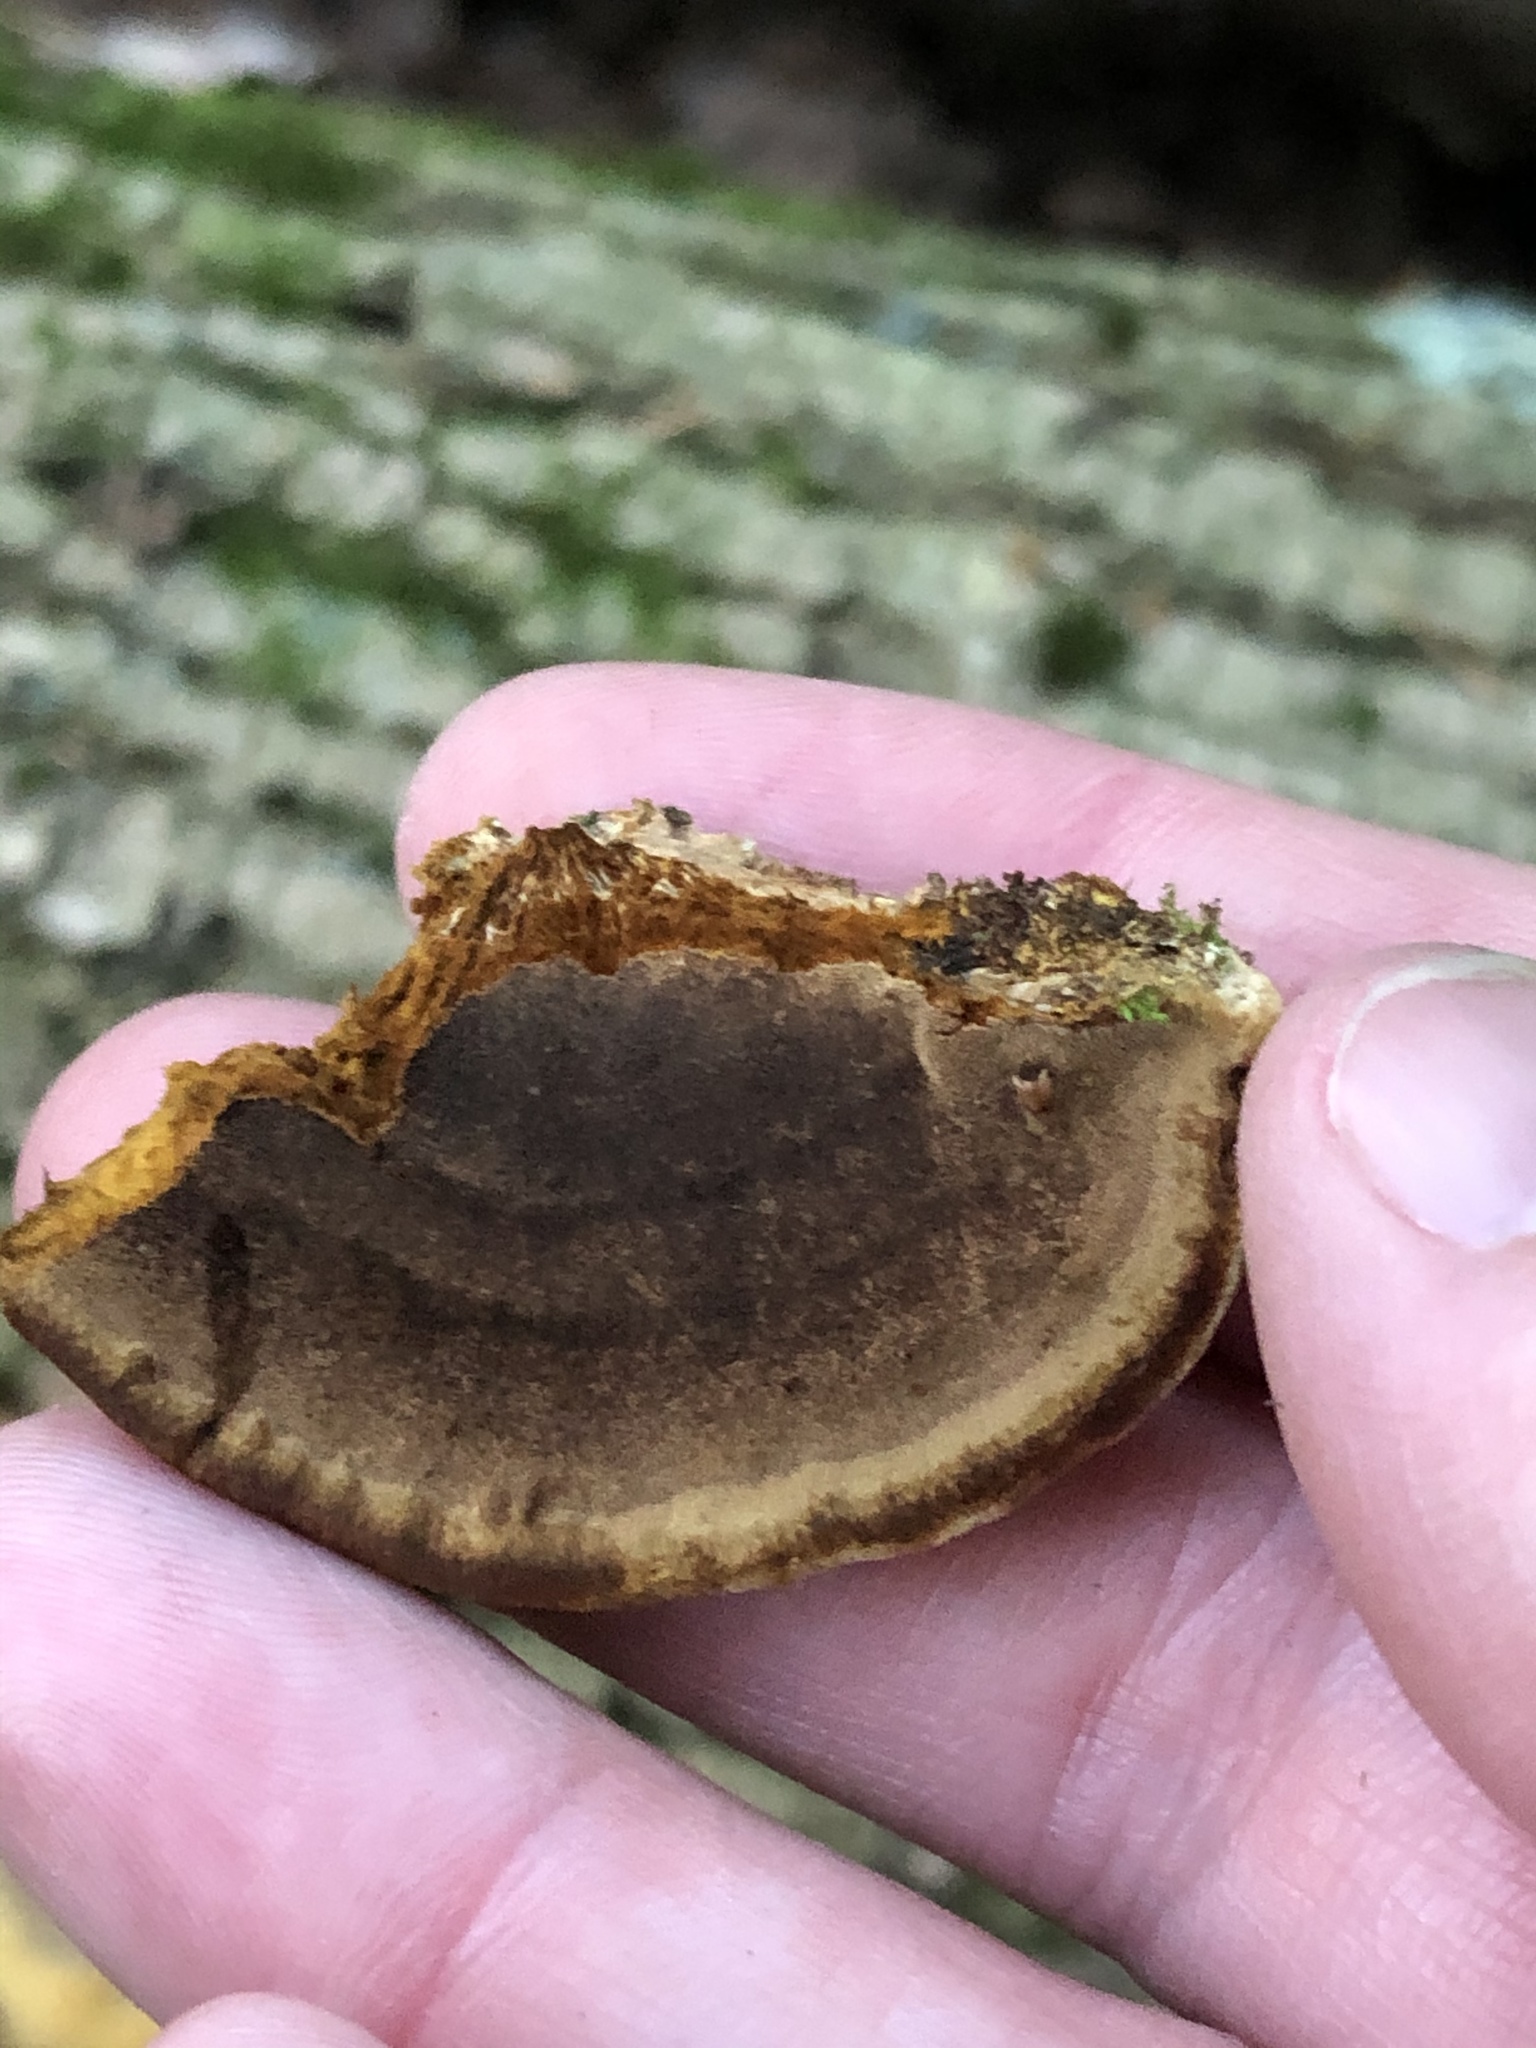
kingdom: Fungi
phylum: Basidiomycota
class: Agaricomycetes
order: Hymenochaetales
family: Hymenochaetaceae
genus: Phellinus
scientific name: Phellinus gilvus
